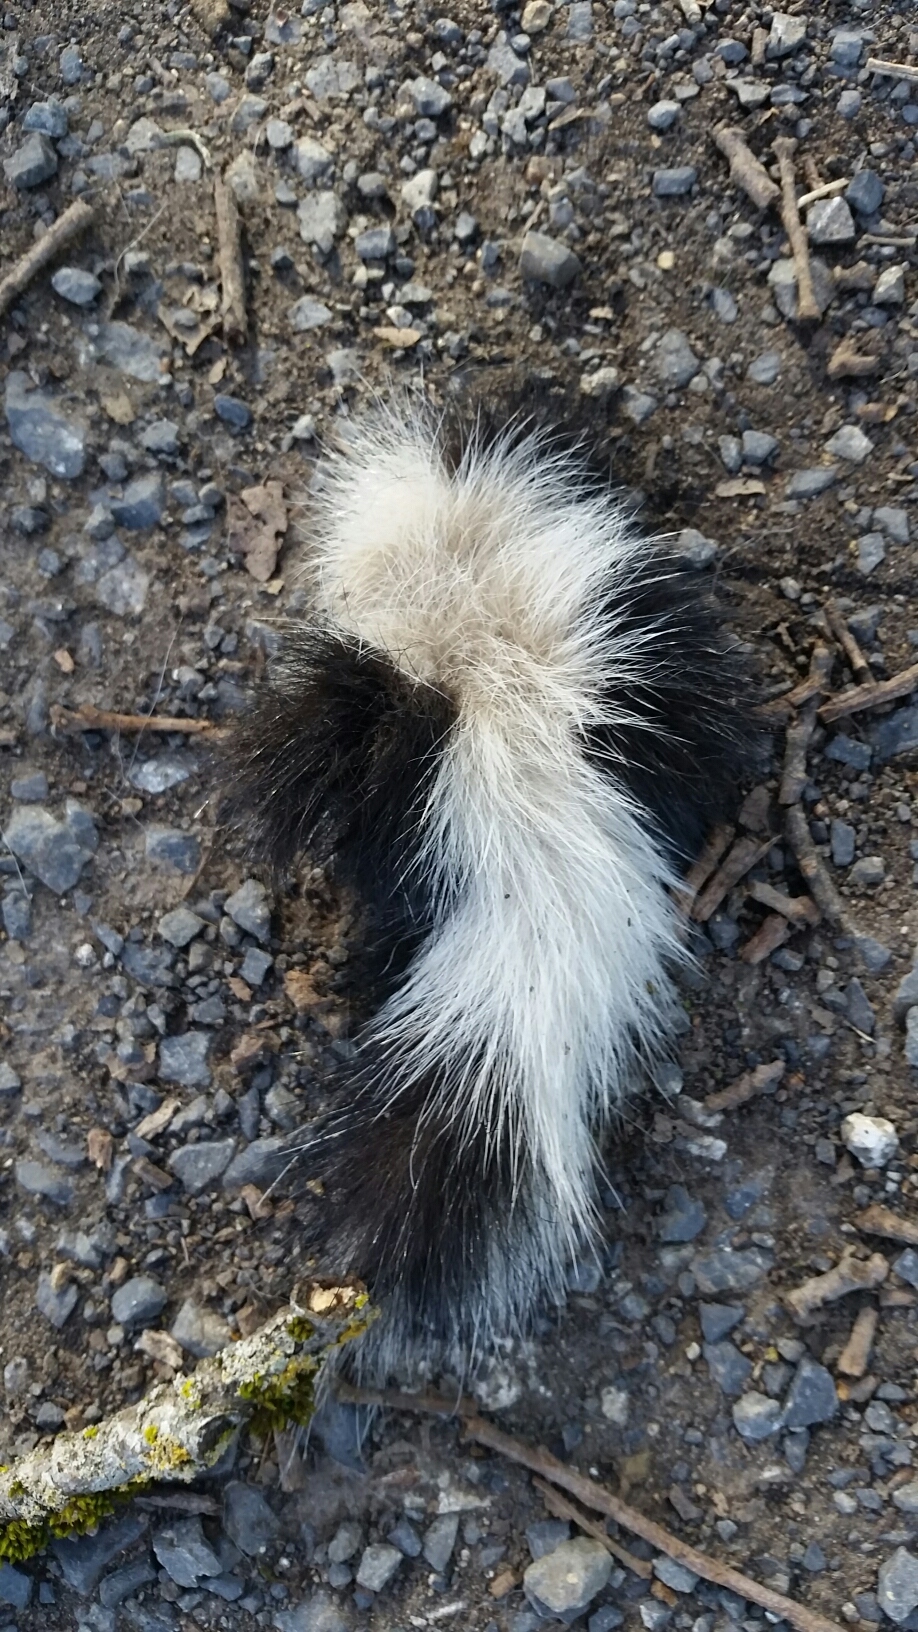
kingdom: Animalia
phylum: Chordata
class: Mammalia
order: Carnivora
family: Mephitidae
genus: Mephitis
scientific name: Mephitis mephitis
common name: Striped skunk
